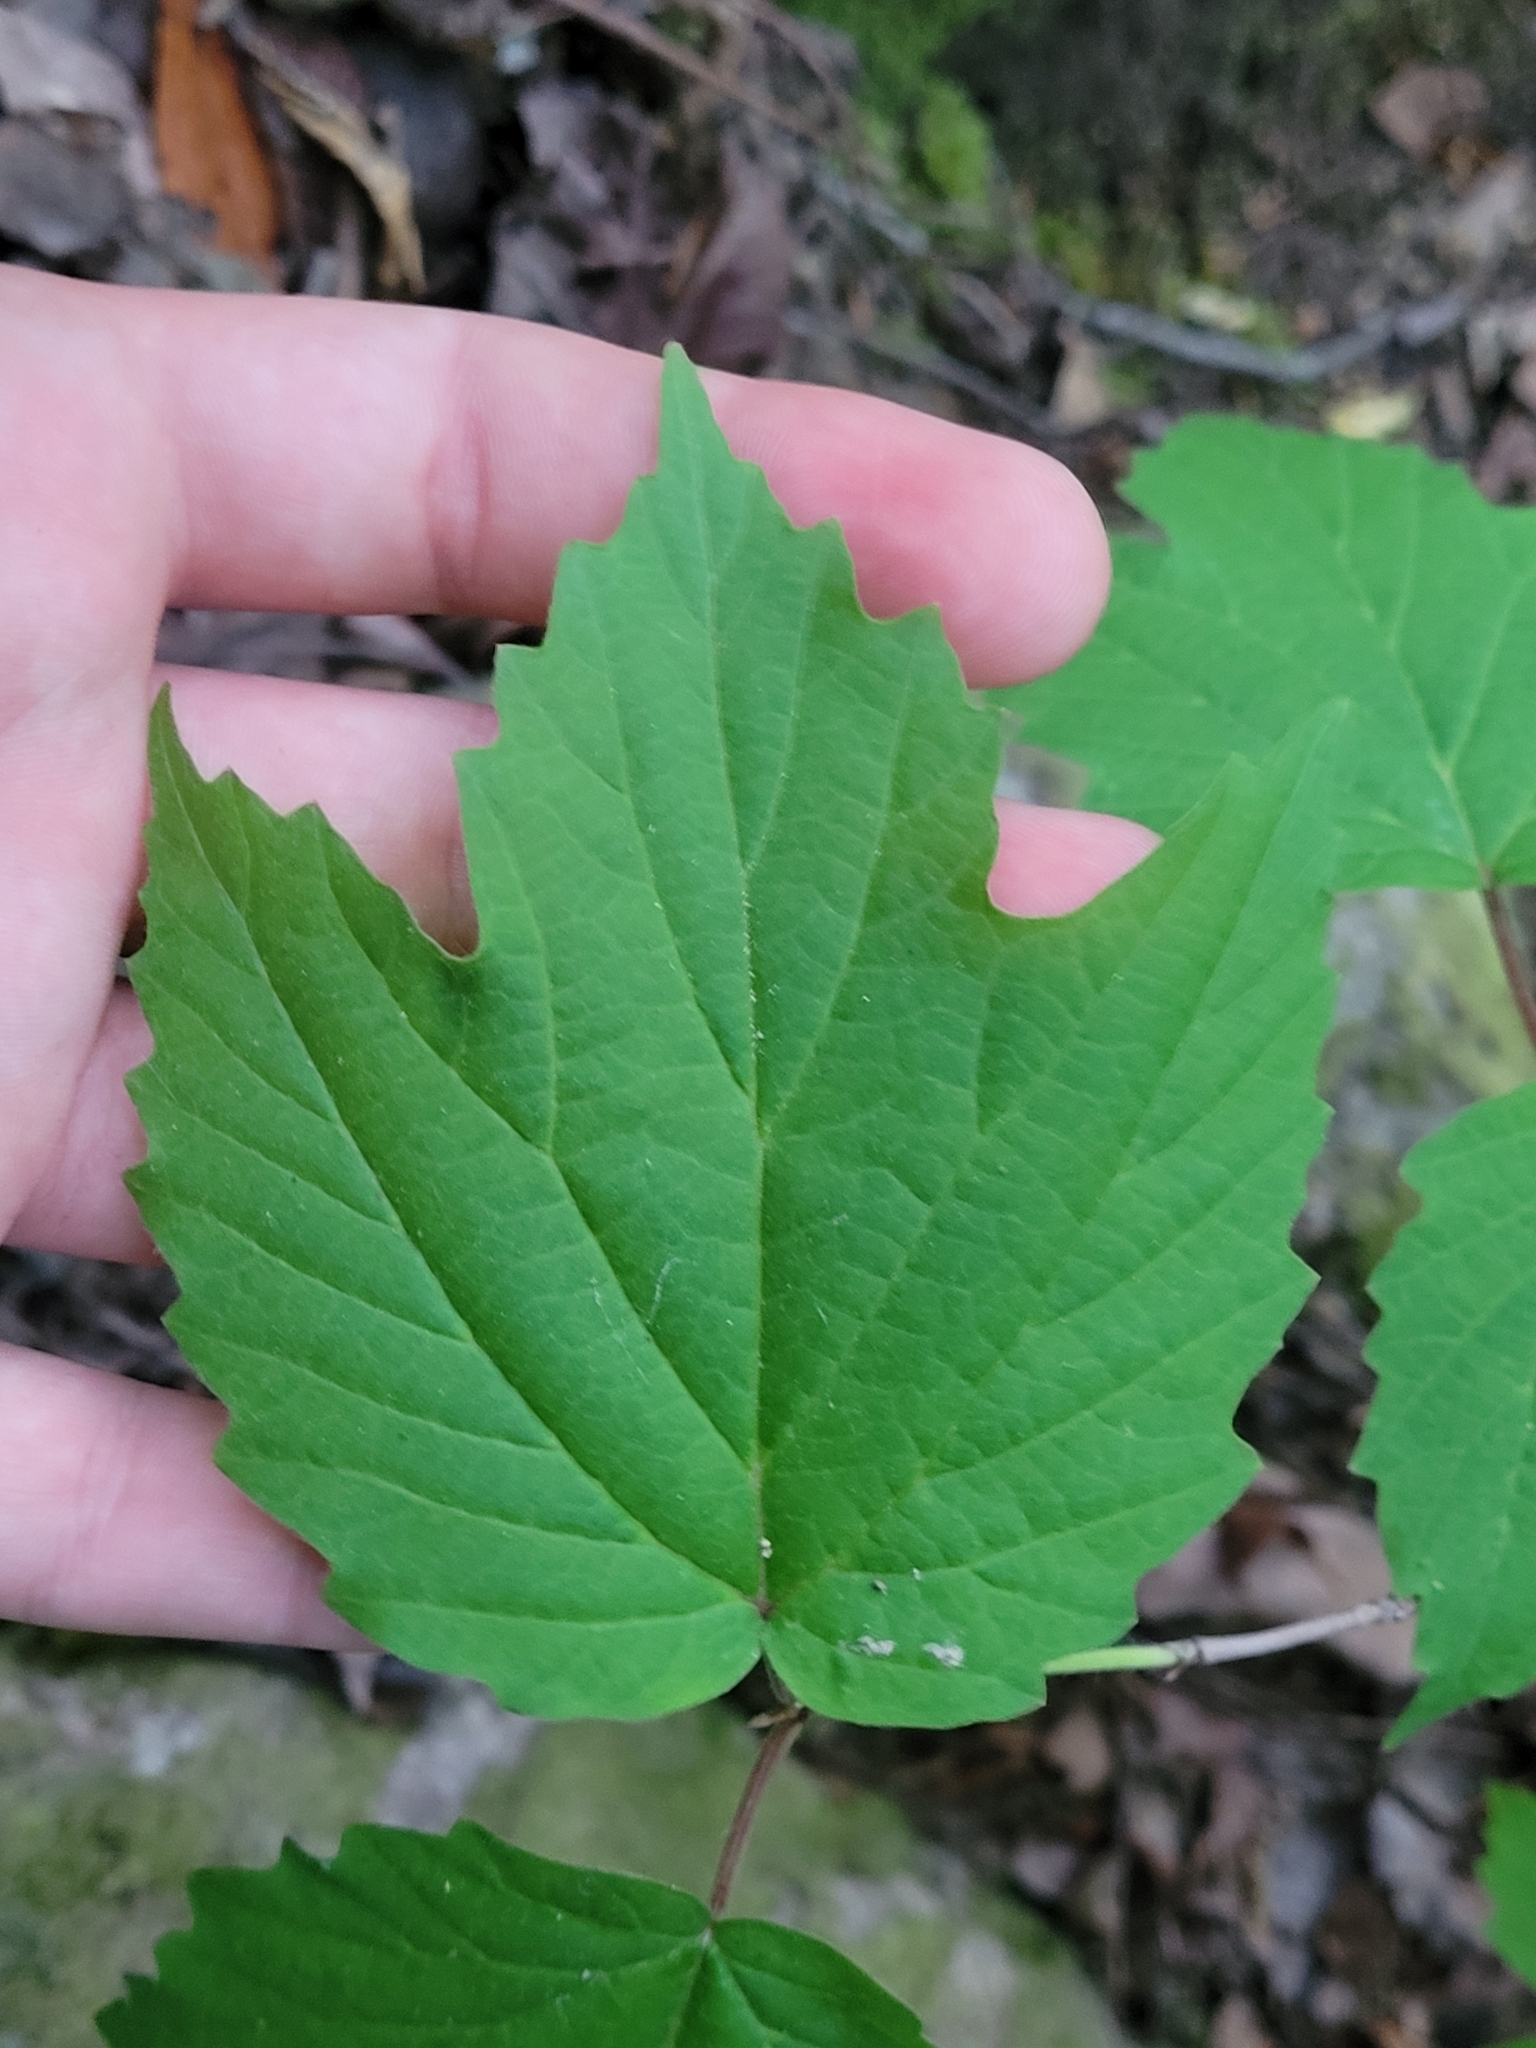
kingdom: Plantae
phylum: Tracheophyta
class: Magnoliopsida
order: Dipsacales
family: Viburnaceae
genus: Viburnum
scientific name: Viburnum acerifolium
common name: Dockmackie
